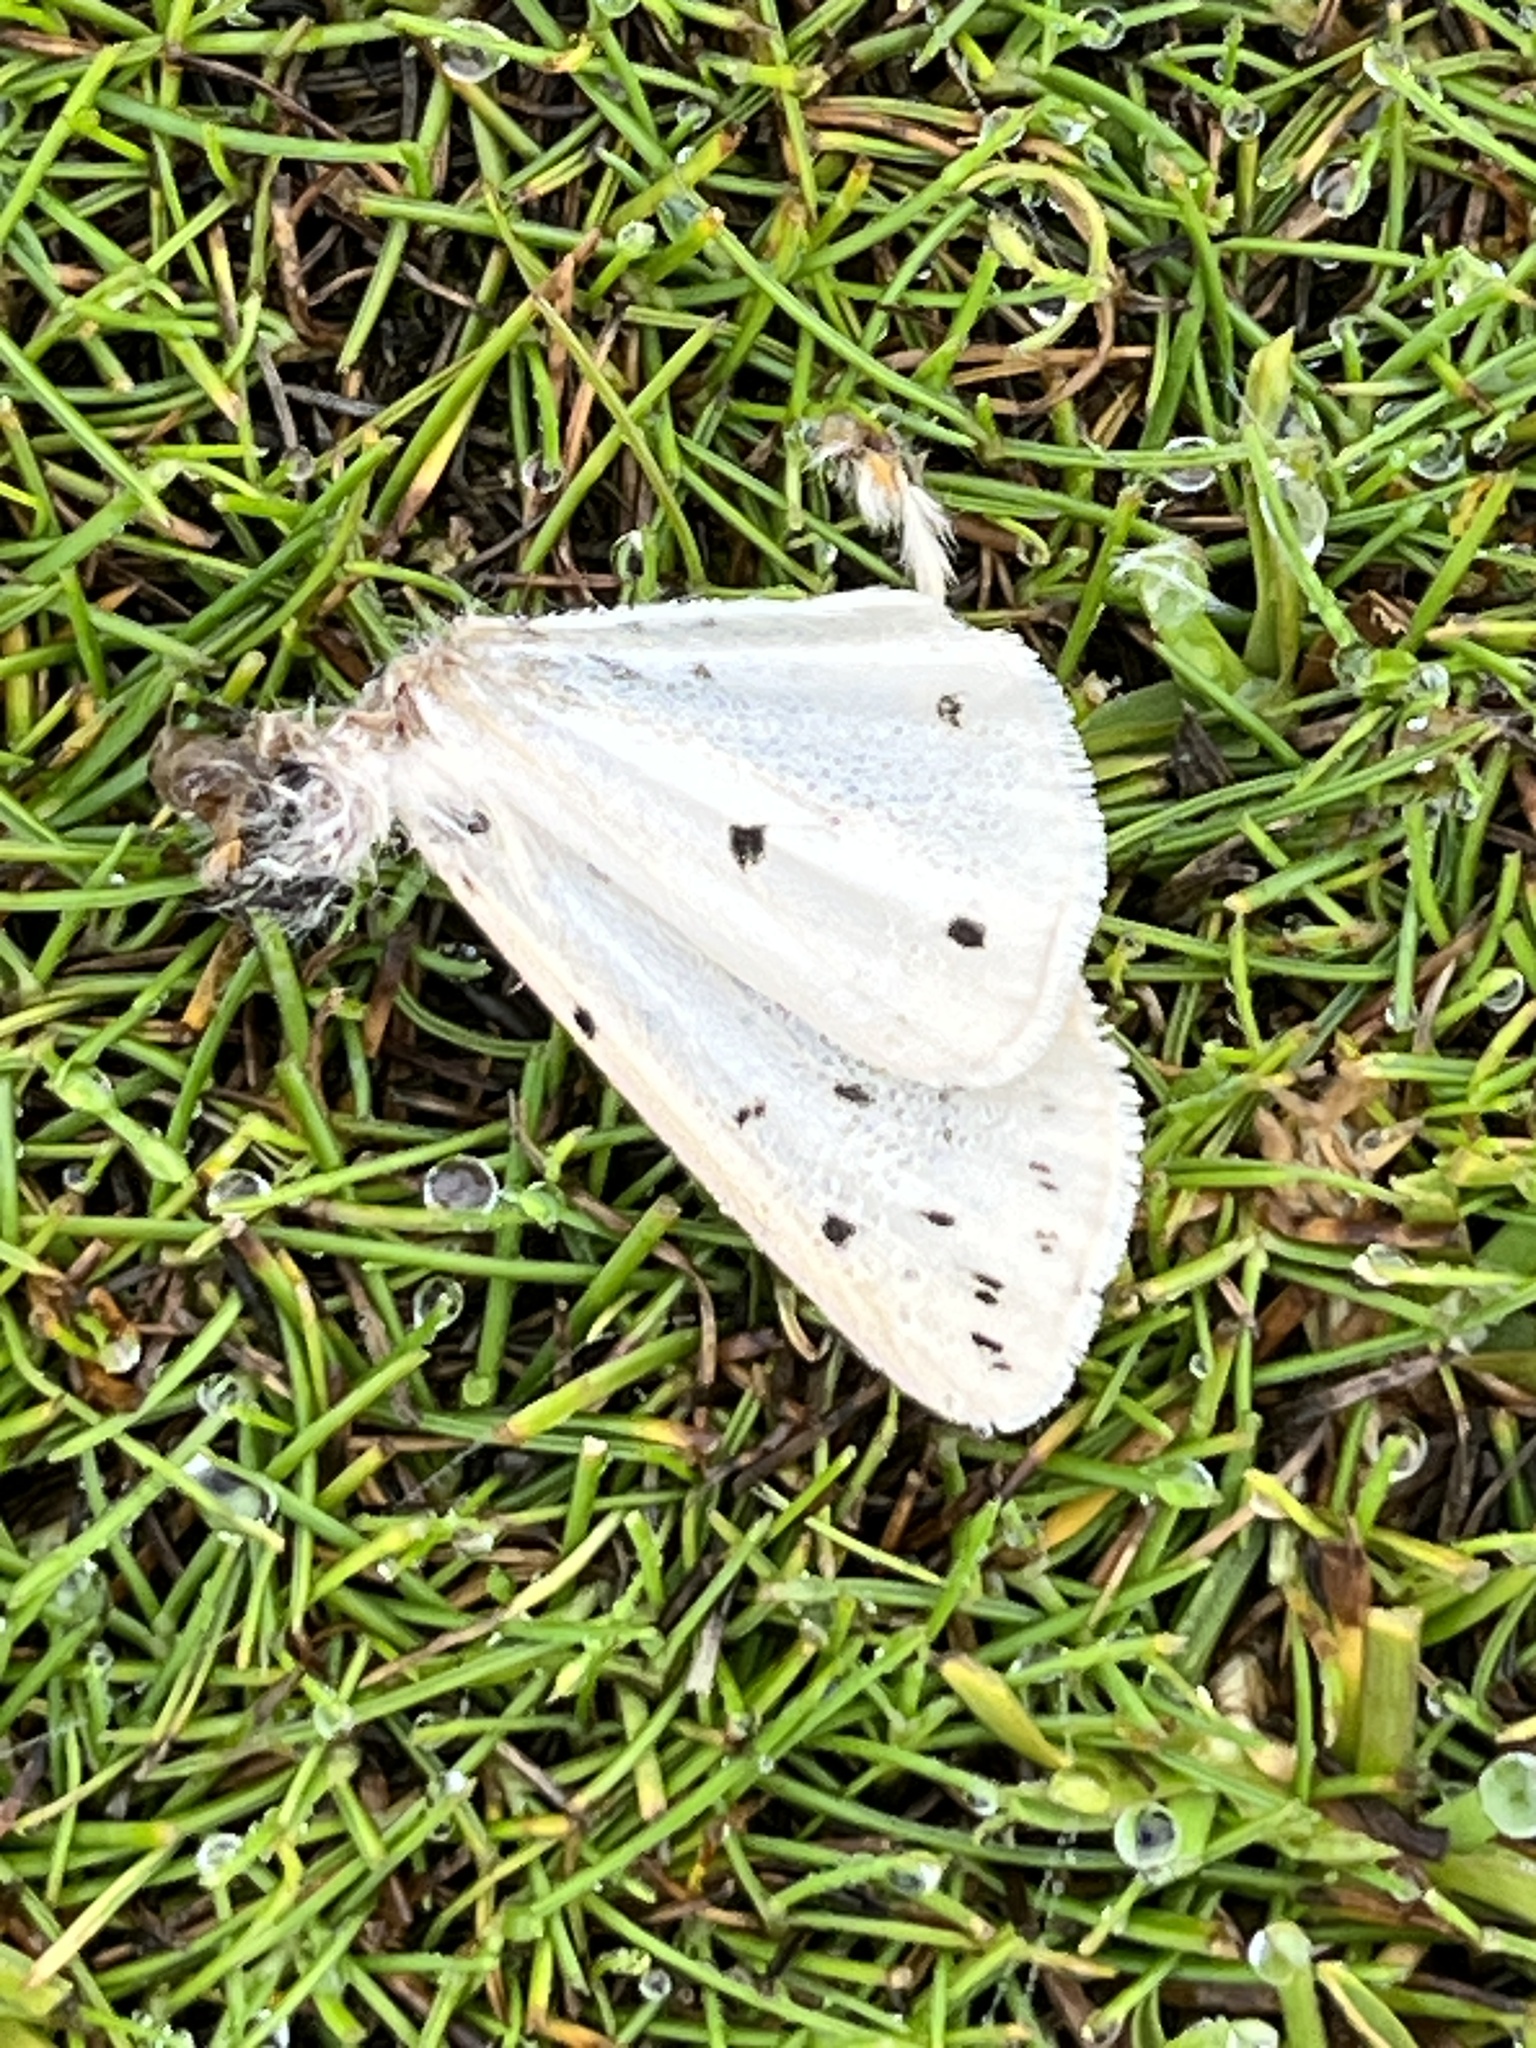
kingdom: Animalia
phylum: Arthropoda
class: Insecta
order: Lepidoptera
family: Erebidae
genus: Spilosoma
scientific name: Spilosoma lubricipeda
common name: White ermine
